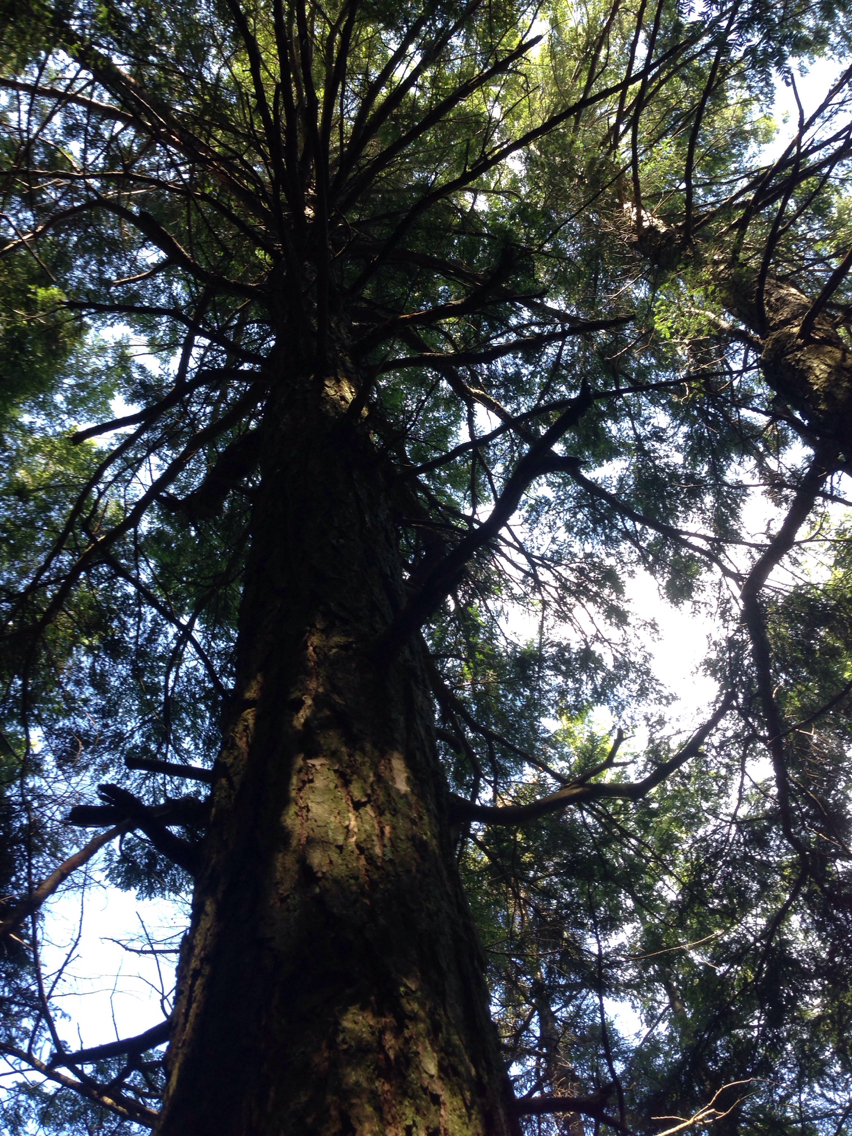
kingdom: Plantae
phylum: Tracheophyta
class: Pinopsida
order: Pinales
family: Pinaceae
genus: Tsuga
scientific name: Tsuga canadensis
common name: Eastern hemlock
